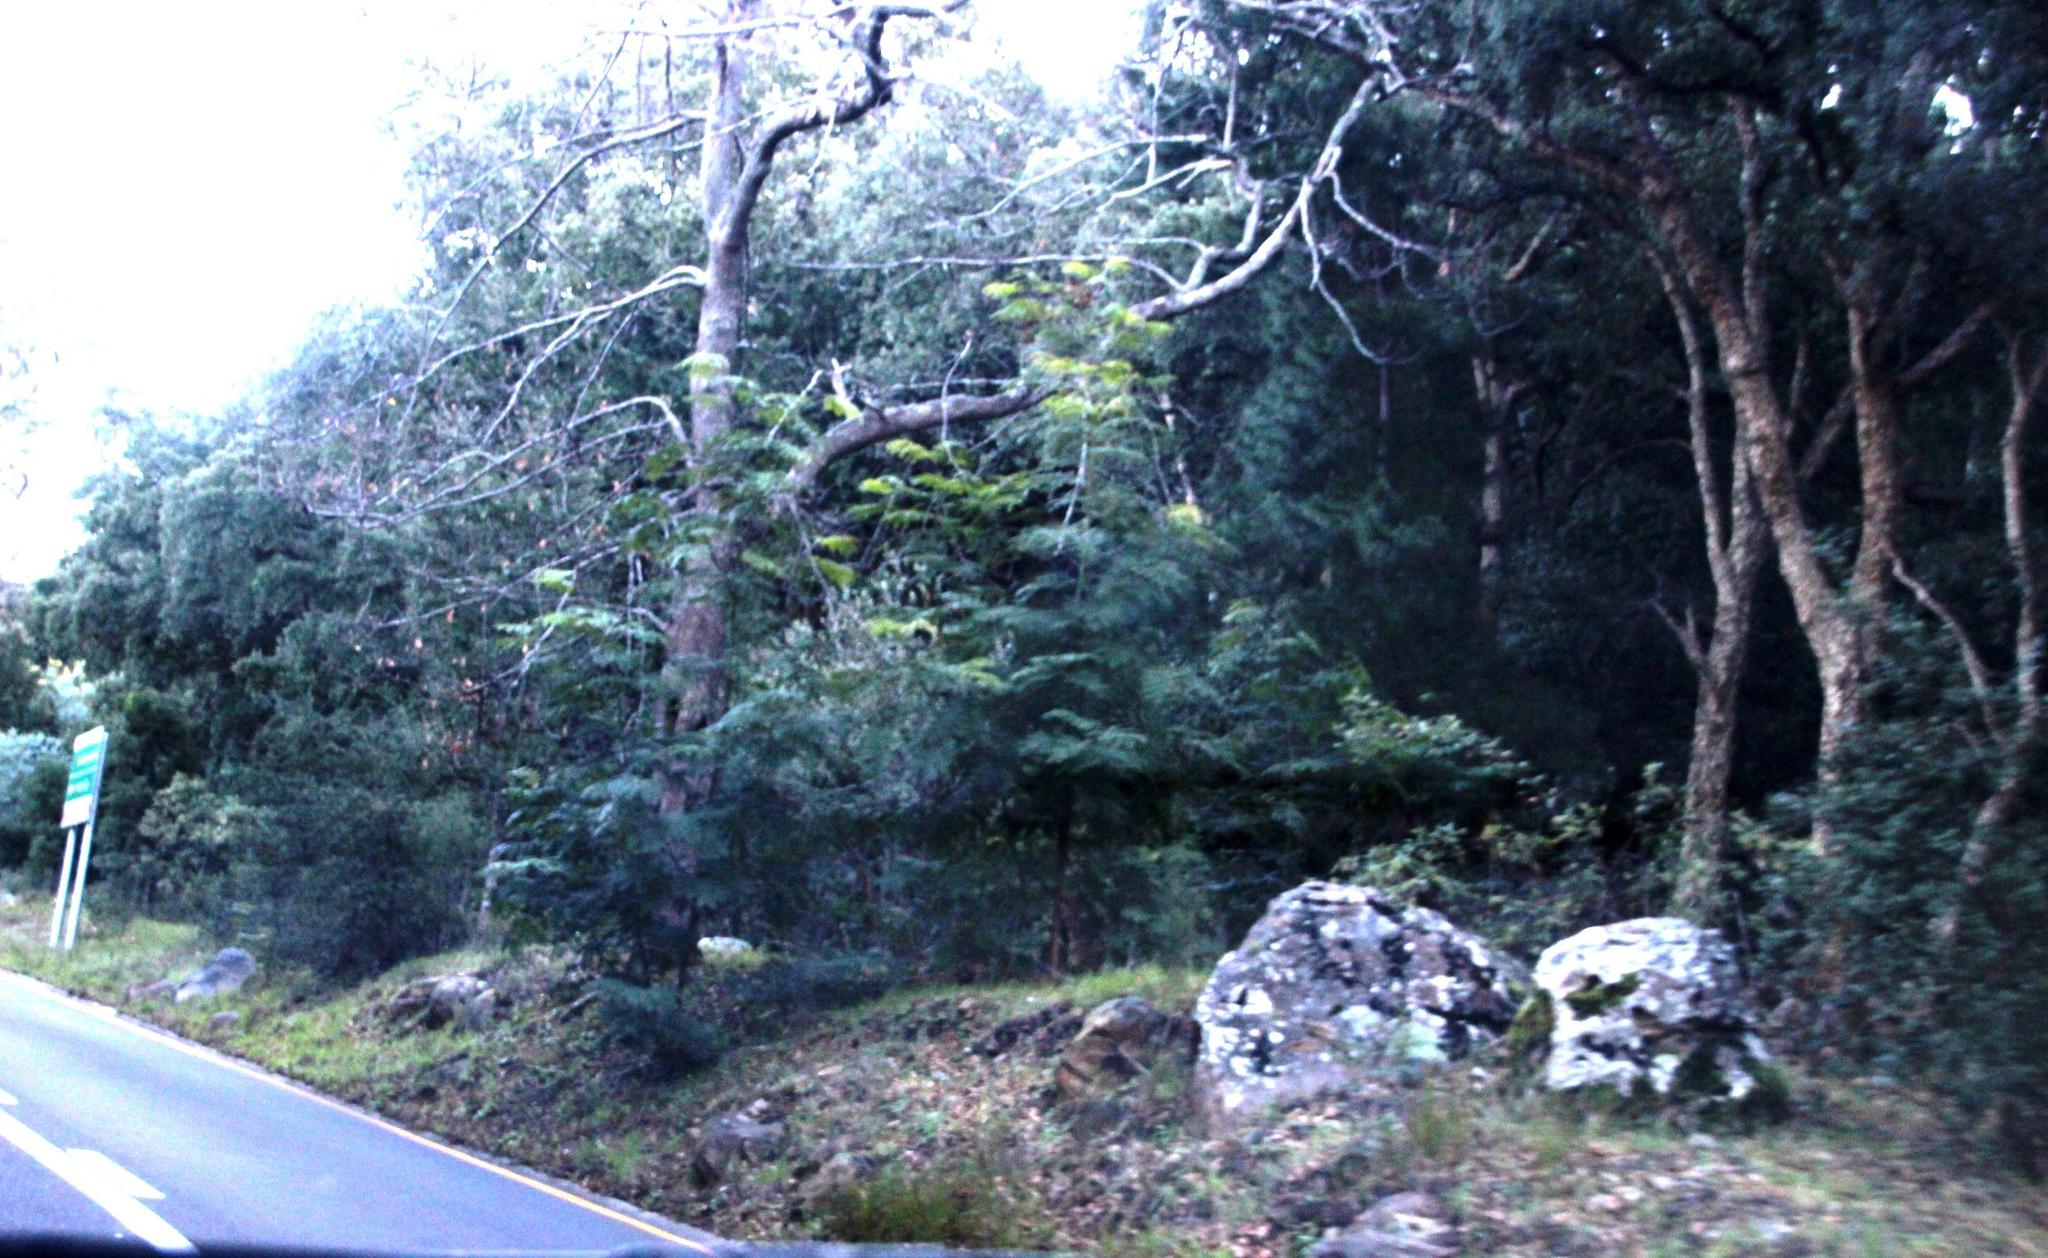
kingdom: Plantae
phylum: Tracheophyta
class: Magnoliopsida
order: Fabales
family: Fabaceae
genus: Acacia
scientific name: Acacia elata
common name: Cedar wattle
